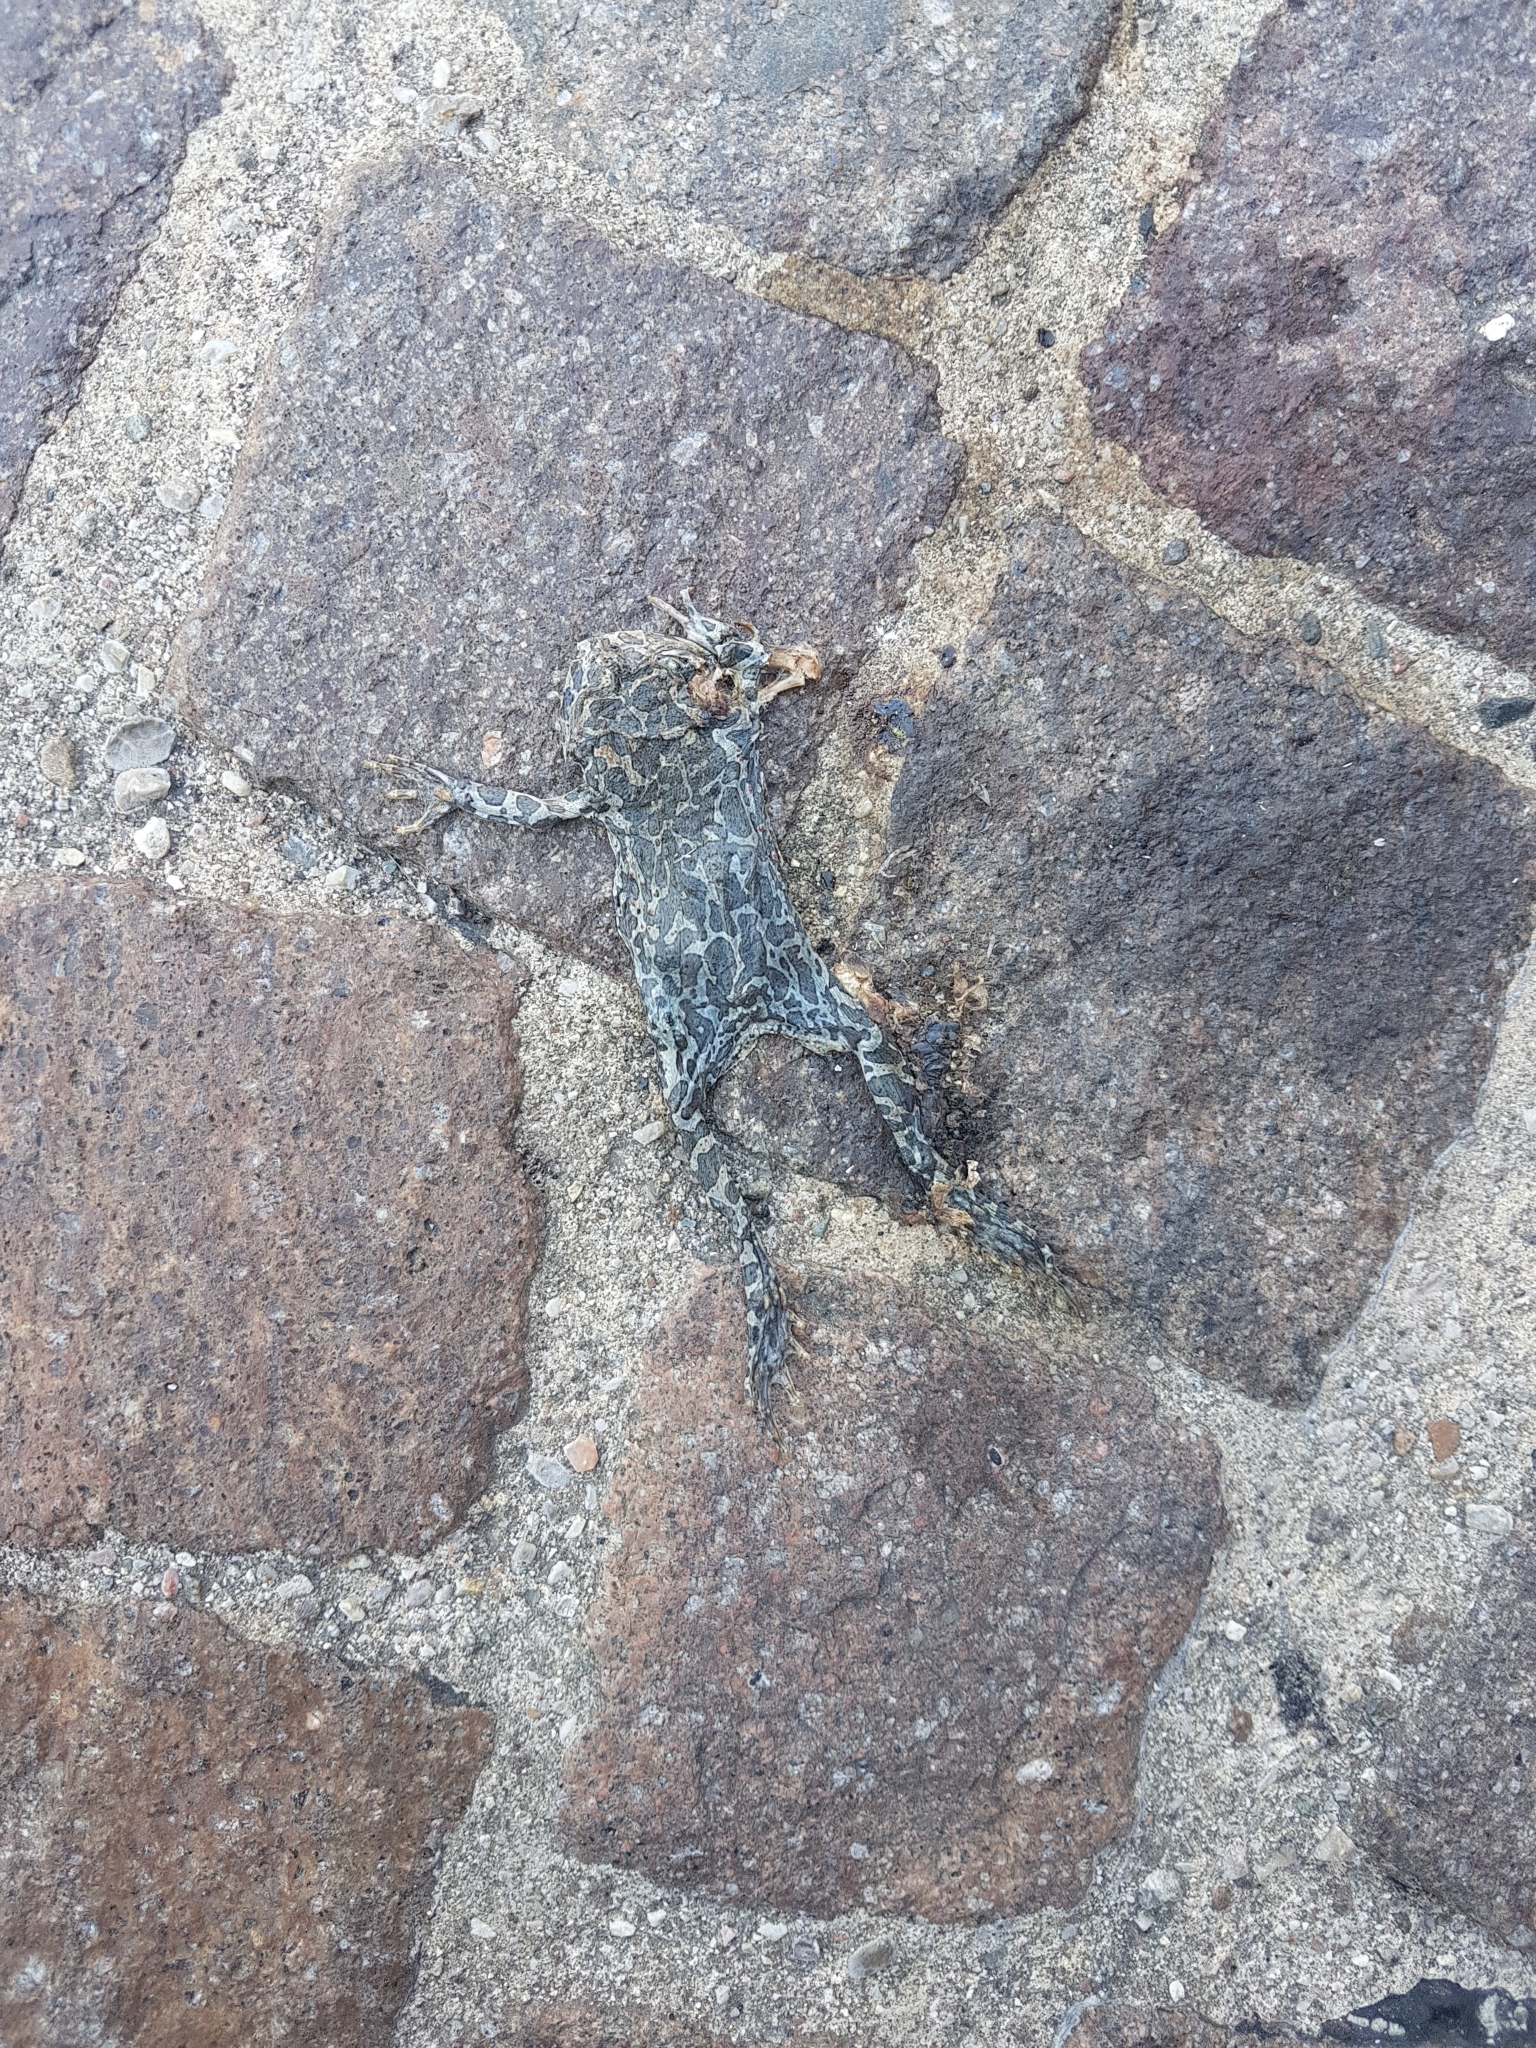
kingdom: Animalia
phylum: Chordata
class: Amphibia
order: Anura
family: Bufonidae
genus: Bufotes
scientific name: Bufotes viridis
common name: European green toad
